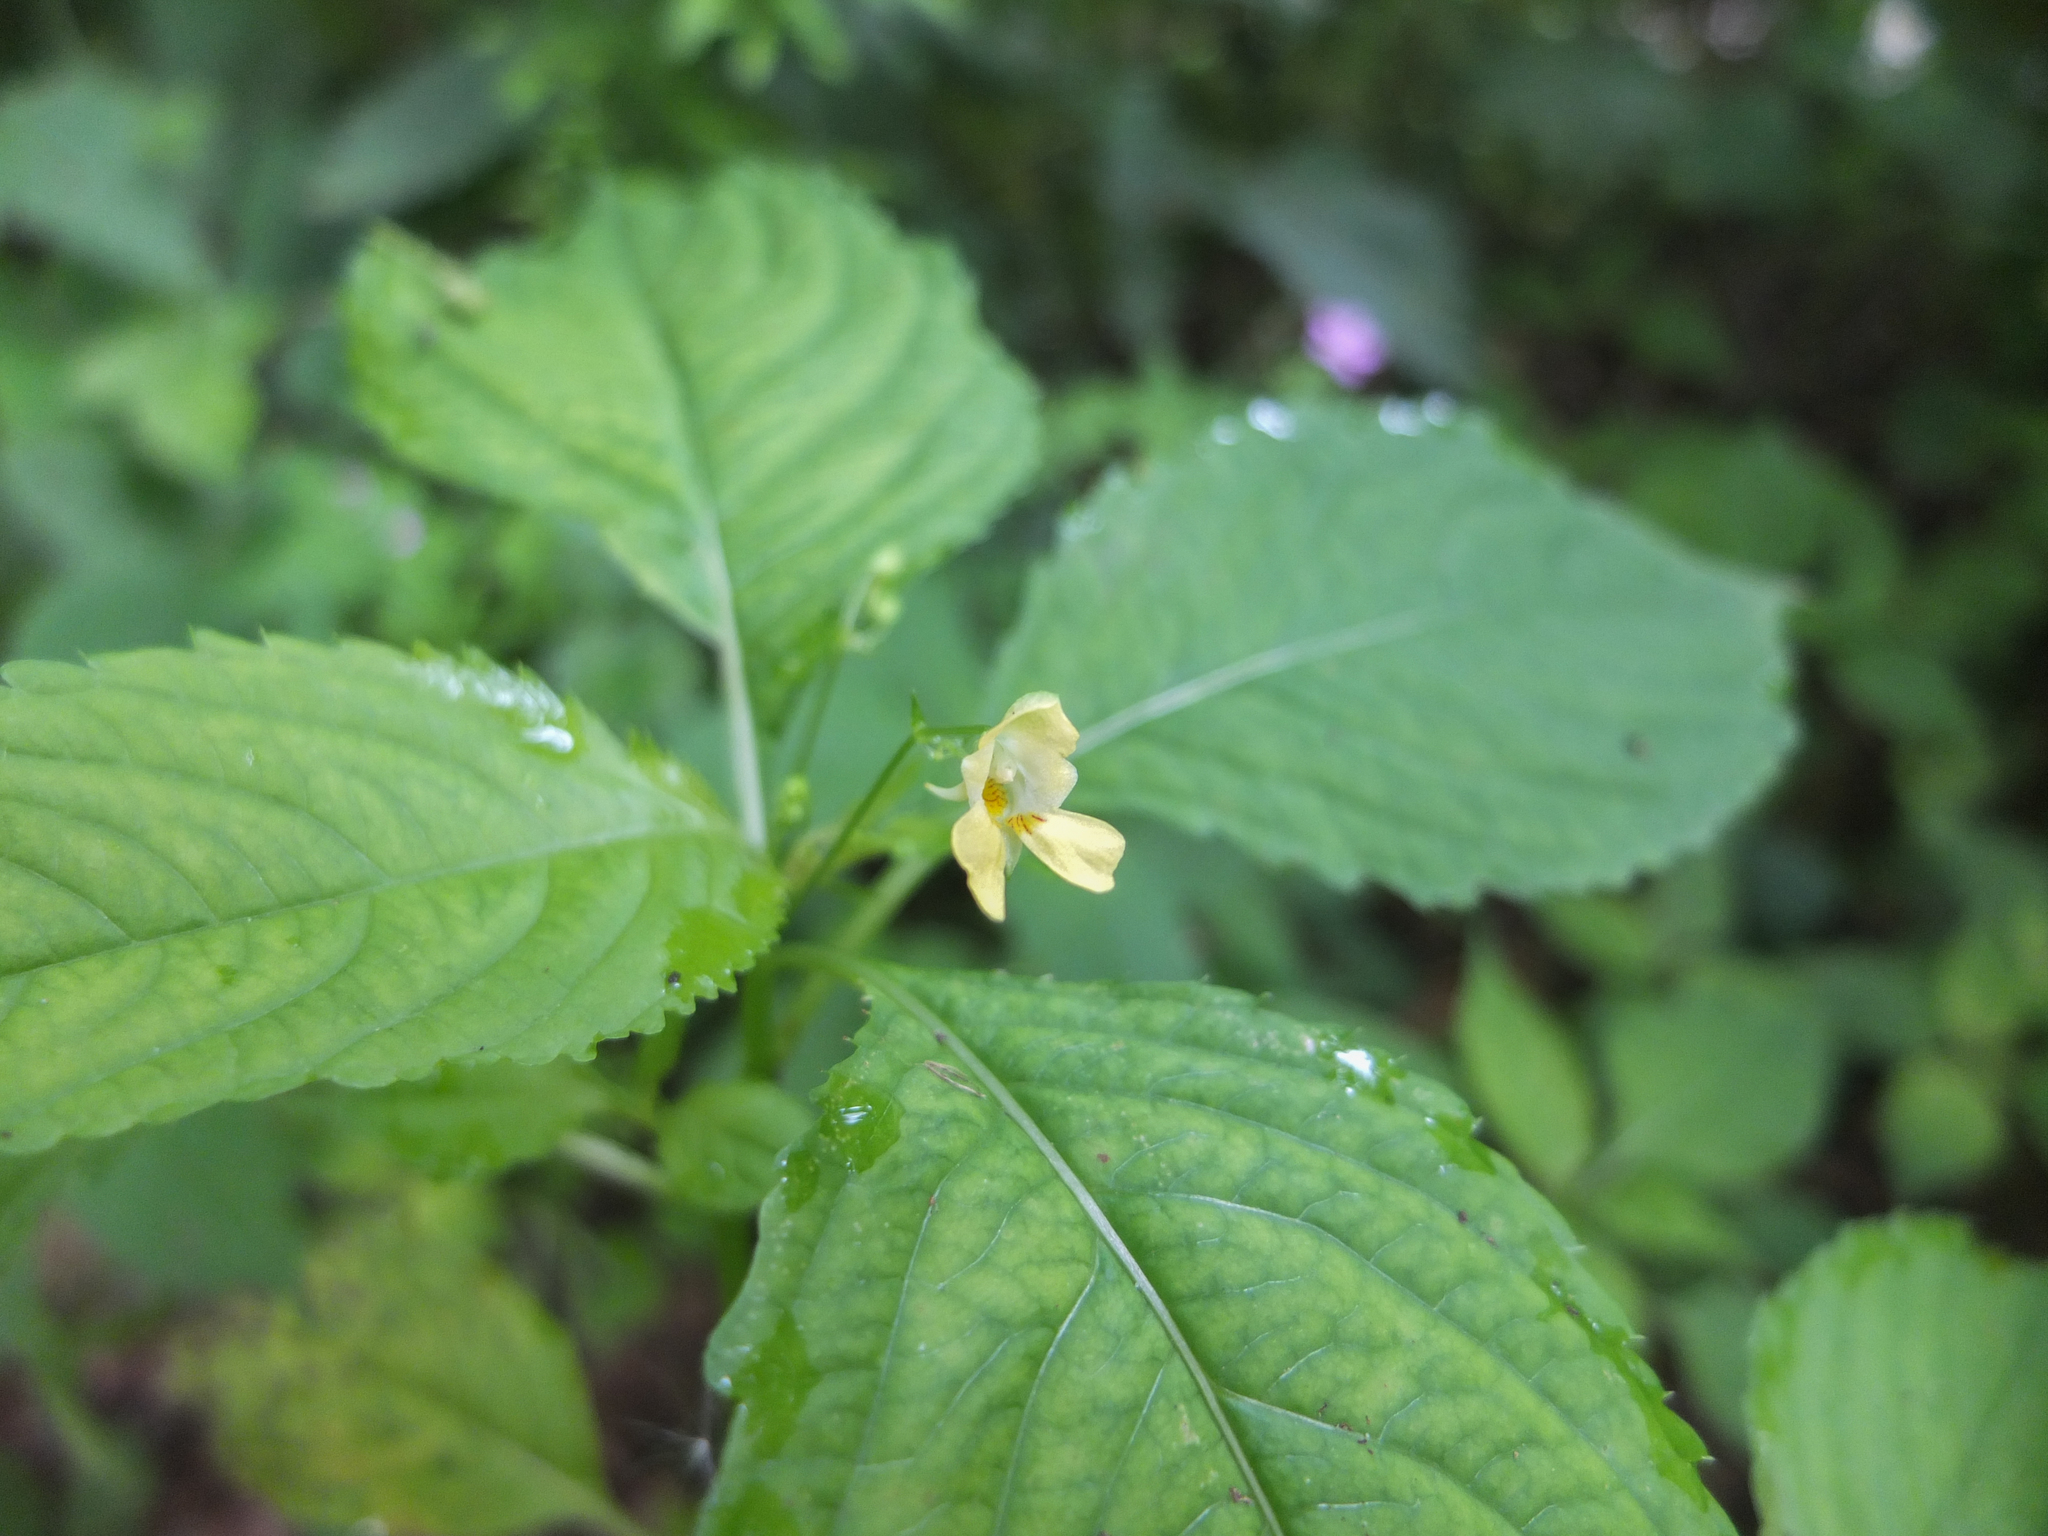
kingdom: Plantae
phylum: Tracheophyta
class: Magnoliopsida
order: Ericales
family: Balsaminaceae
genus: Impatiens
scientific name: Impatiens parviflora
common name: Small balsam
